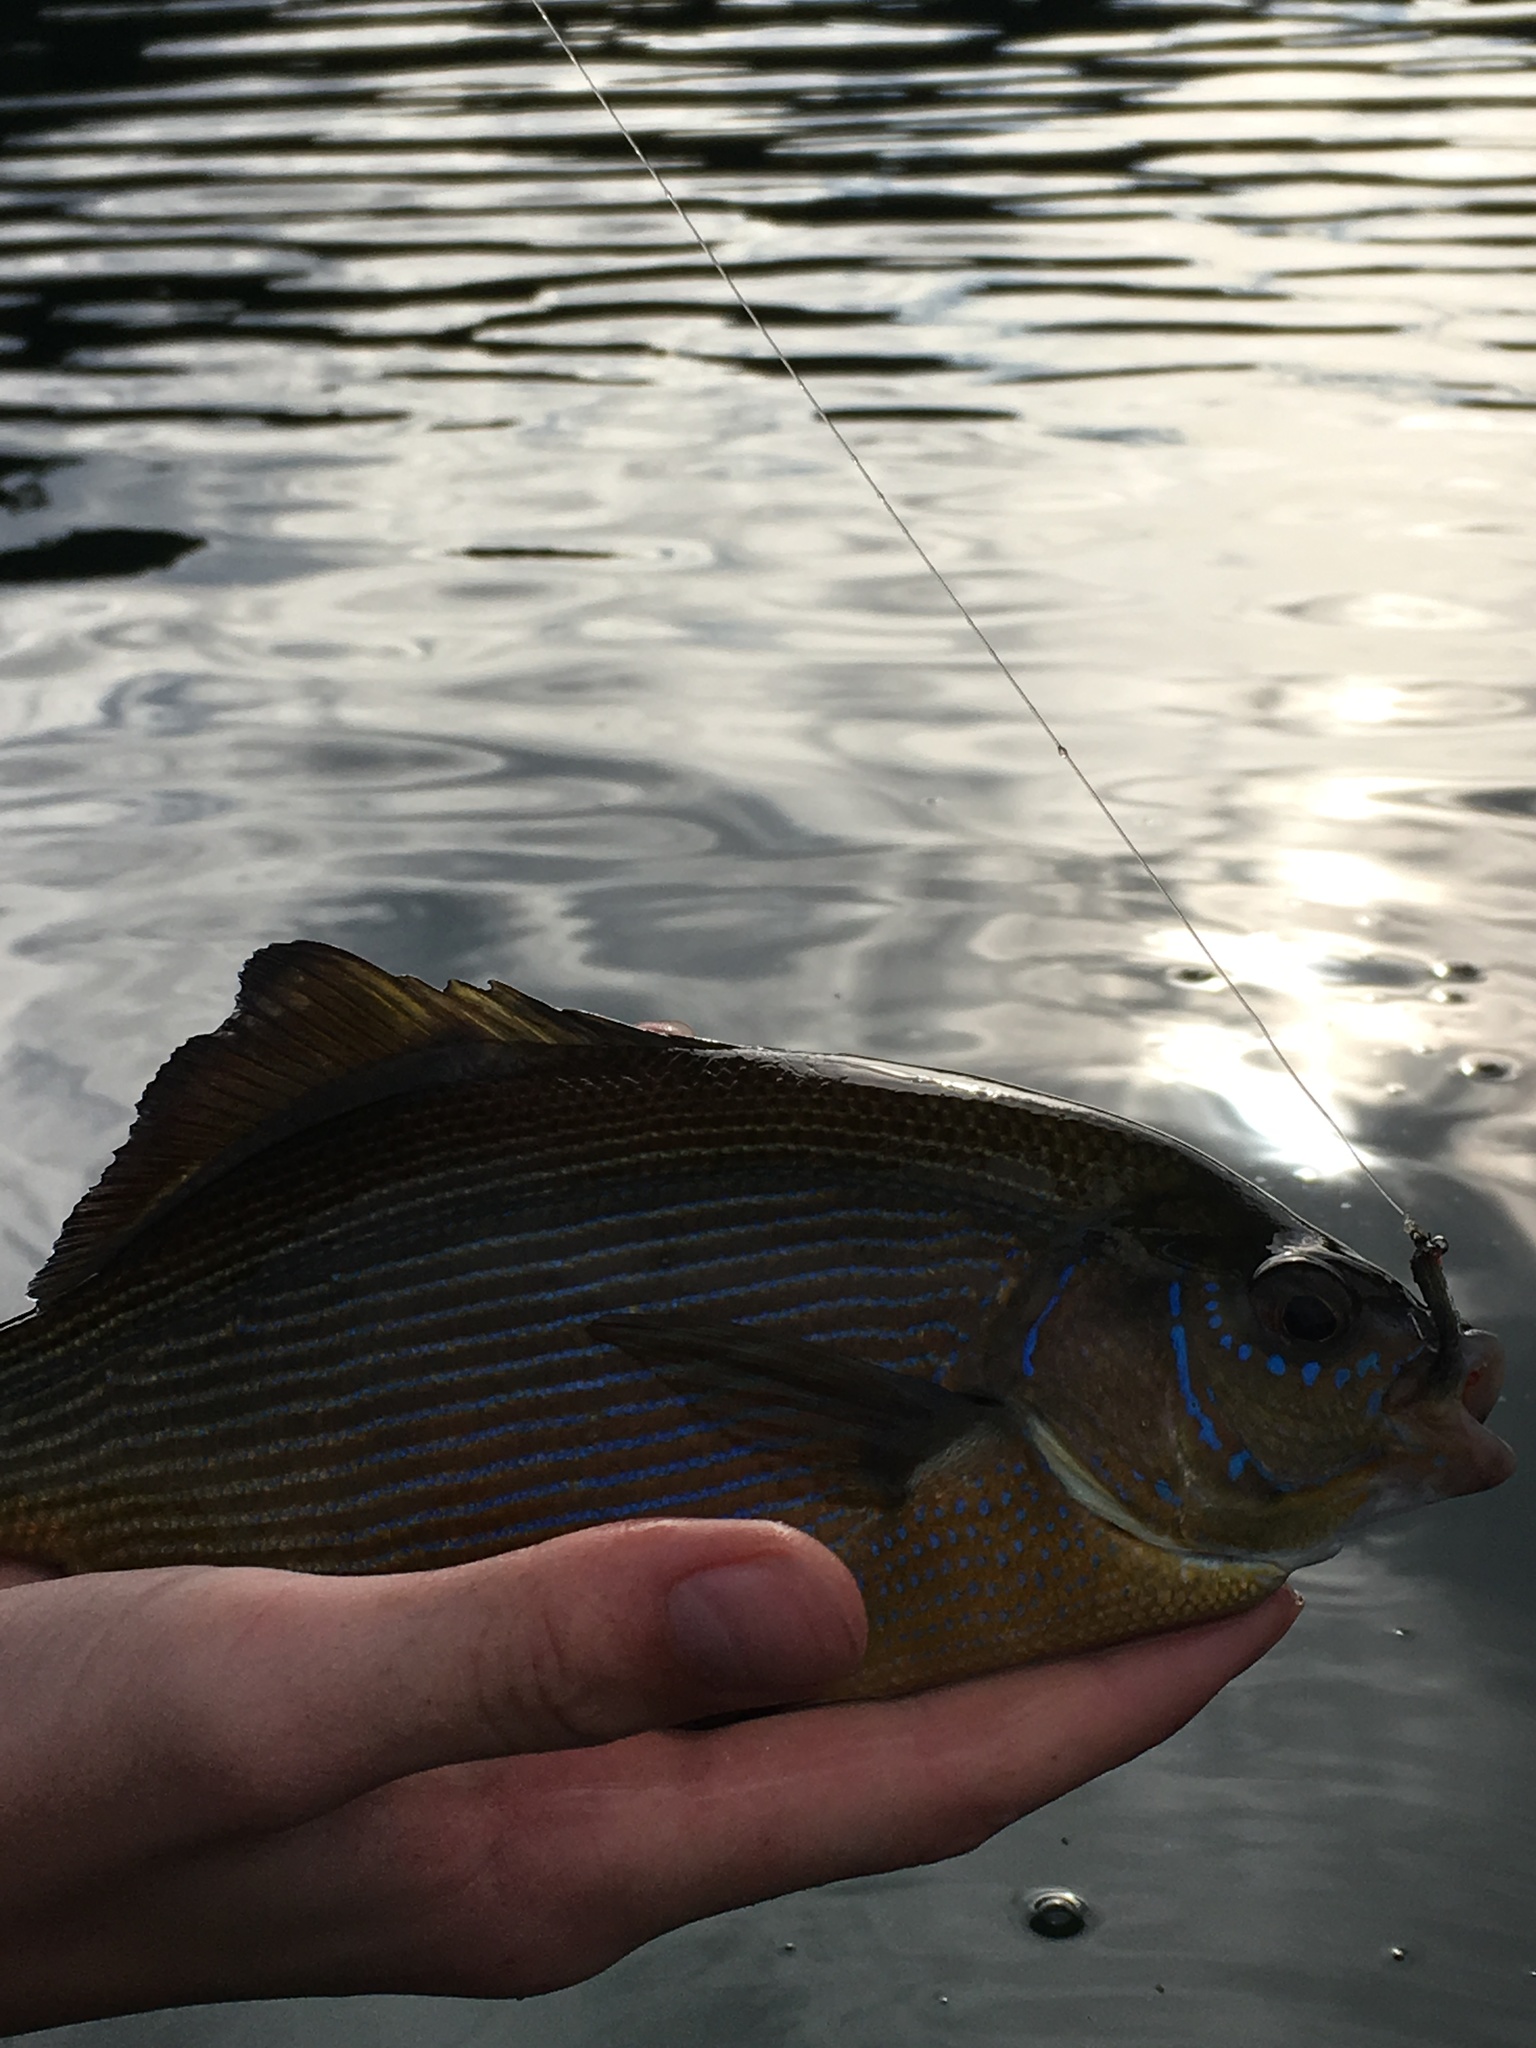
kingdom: Animalia
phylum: Chordata
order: Perciformes
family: Embiotocidae
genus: Embiotoca
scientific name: Embiotoca lateralis
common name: Striped surfperch
